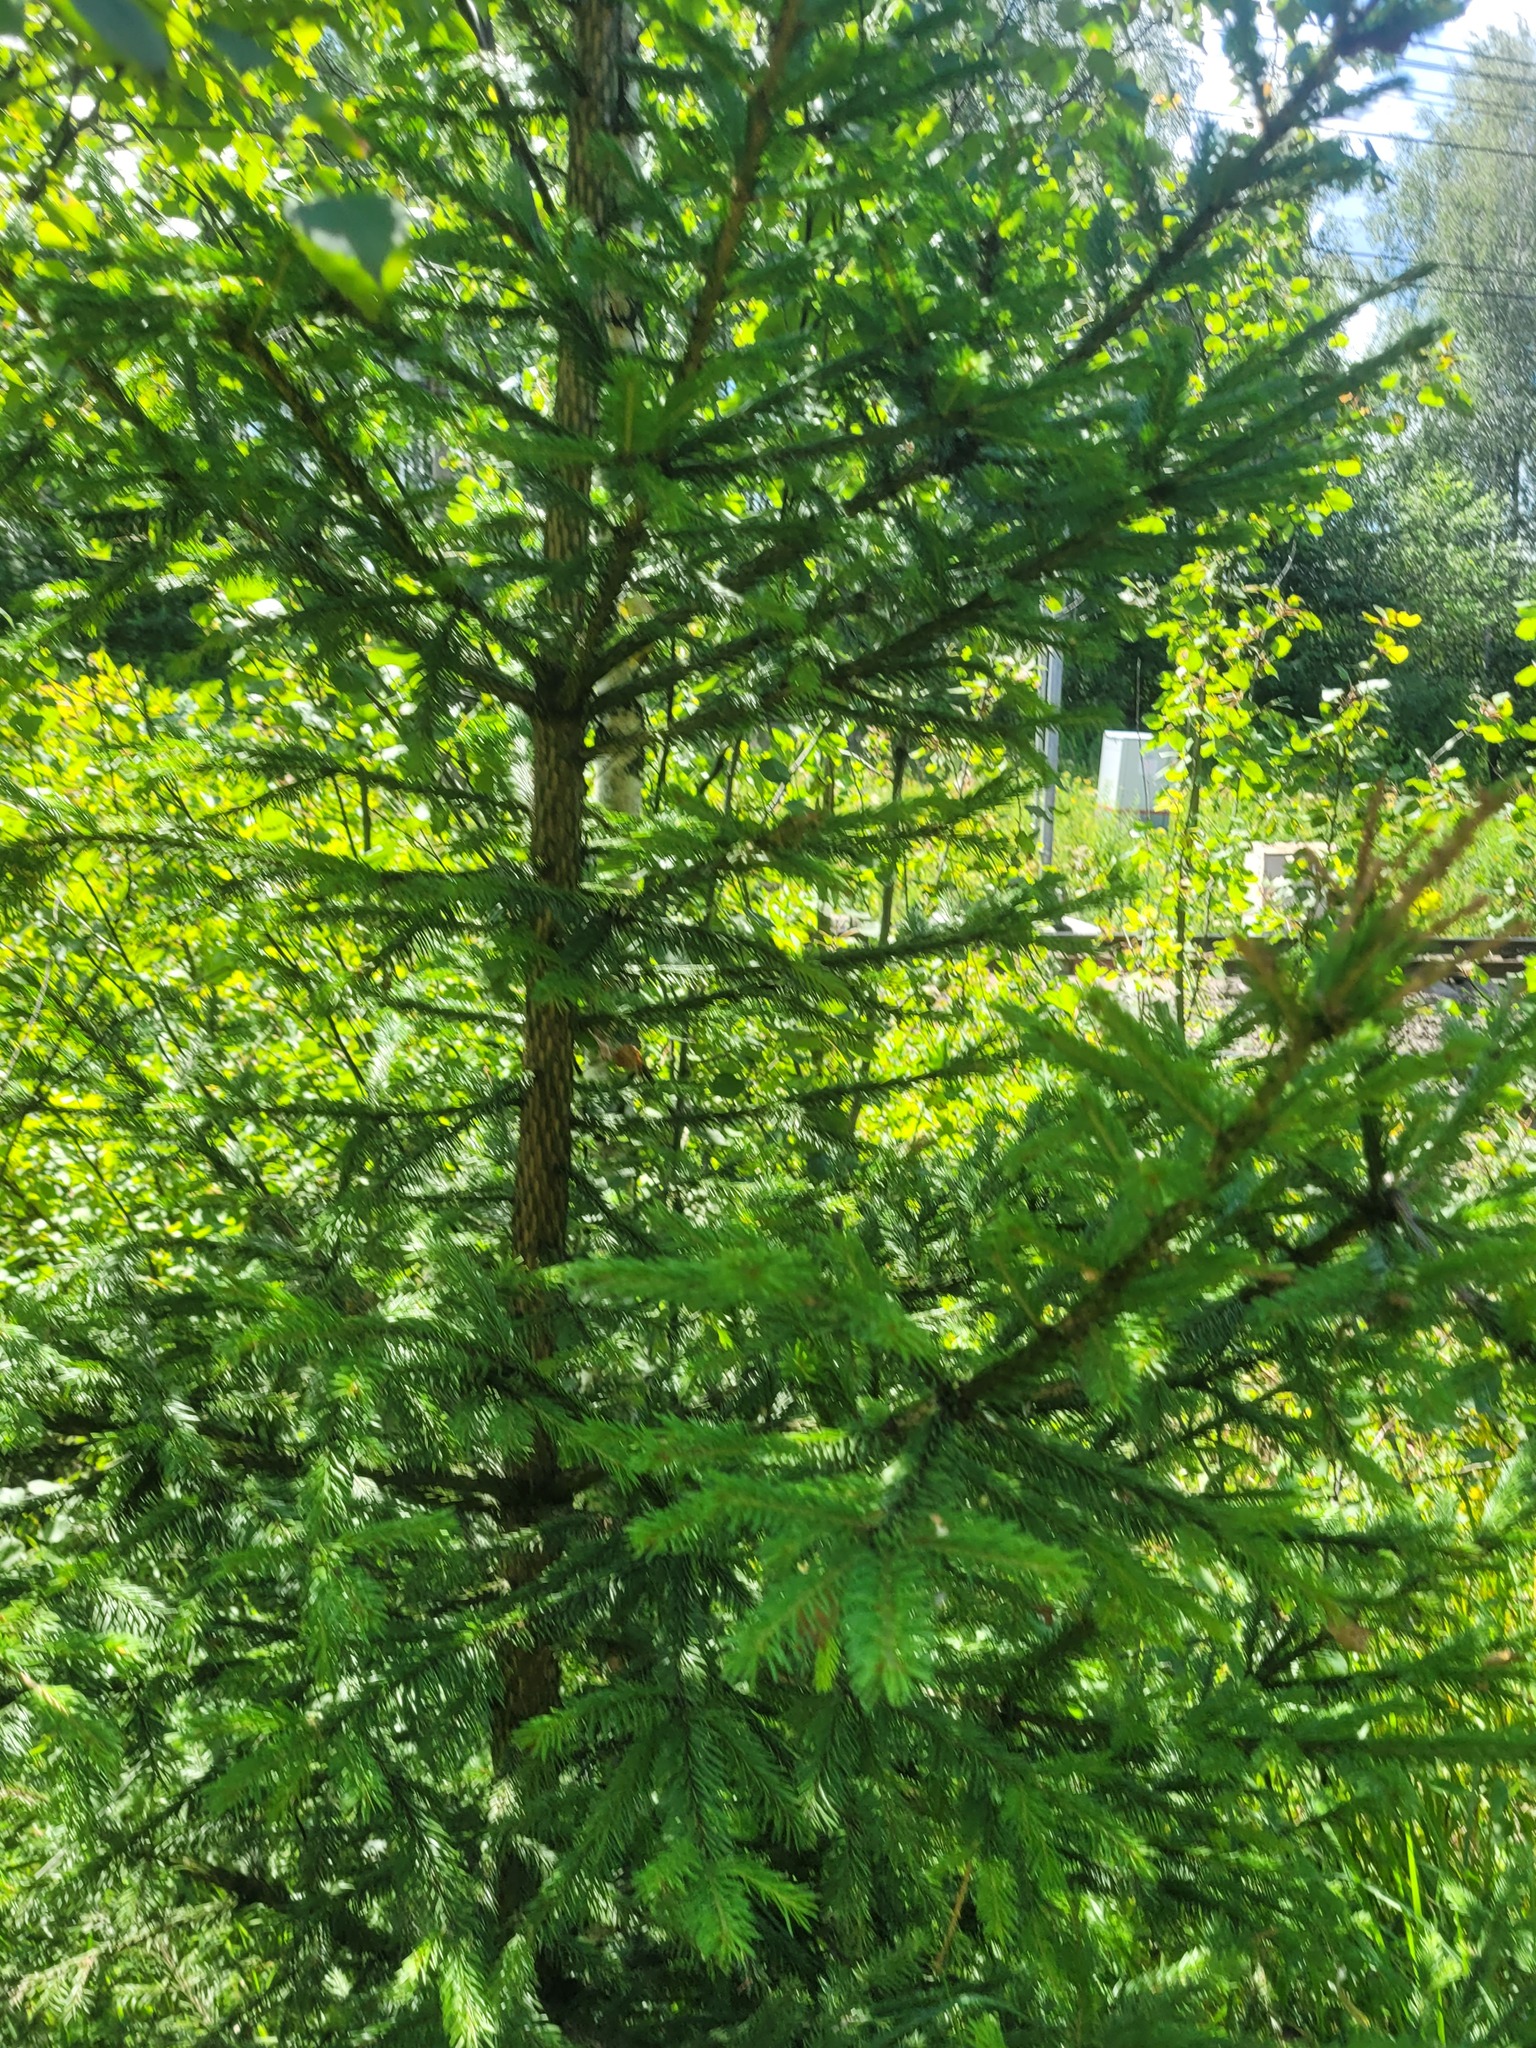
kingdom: Plantae
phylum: Tracheophyta
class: Pinopsida
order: Pinales
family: Pinaceae
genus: Picea
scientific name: Picea abies
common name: Norway spruce
